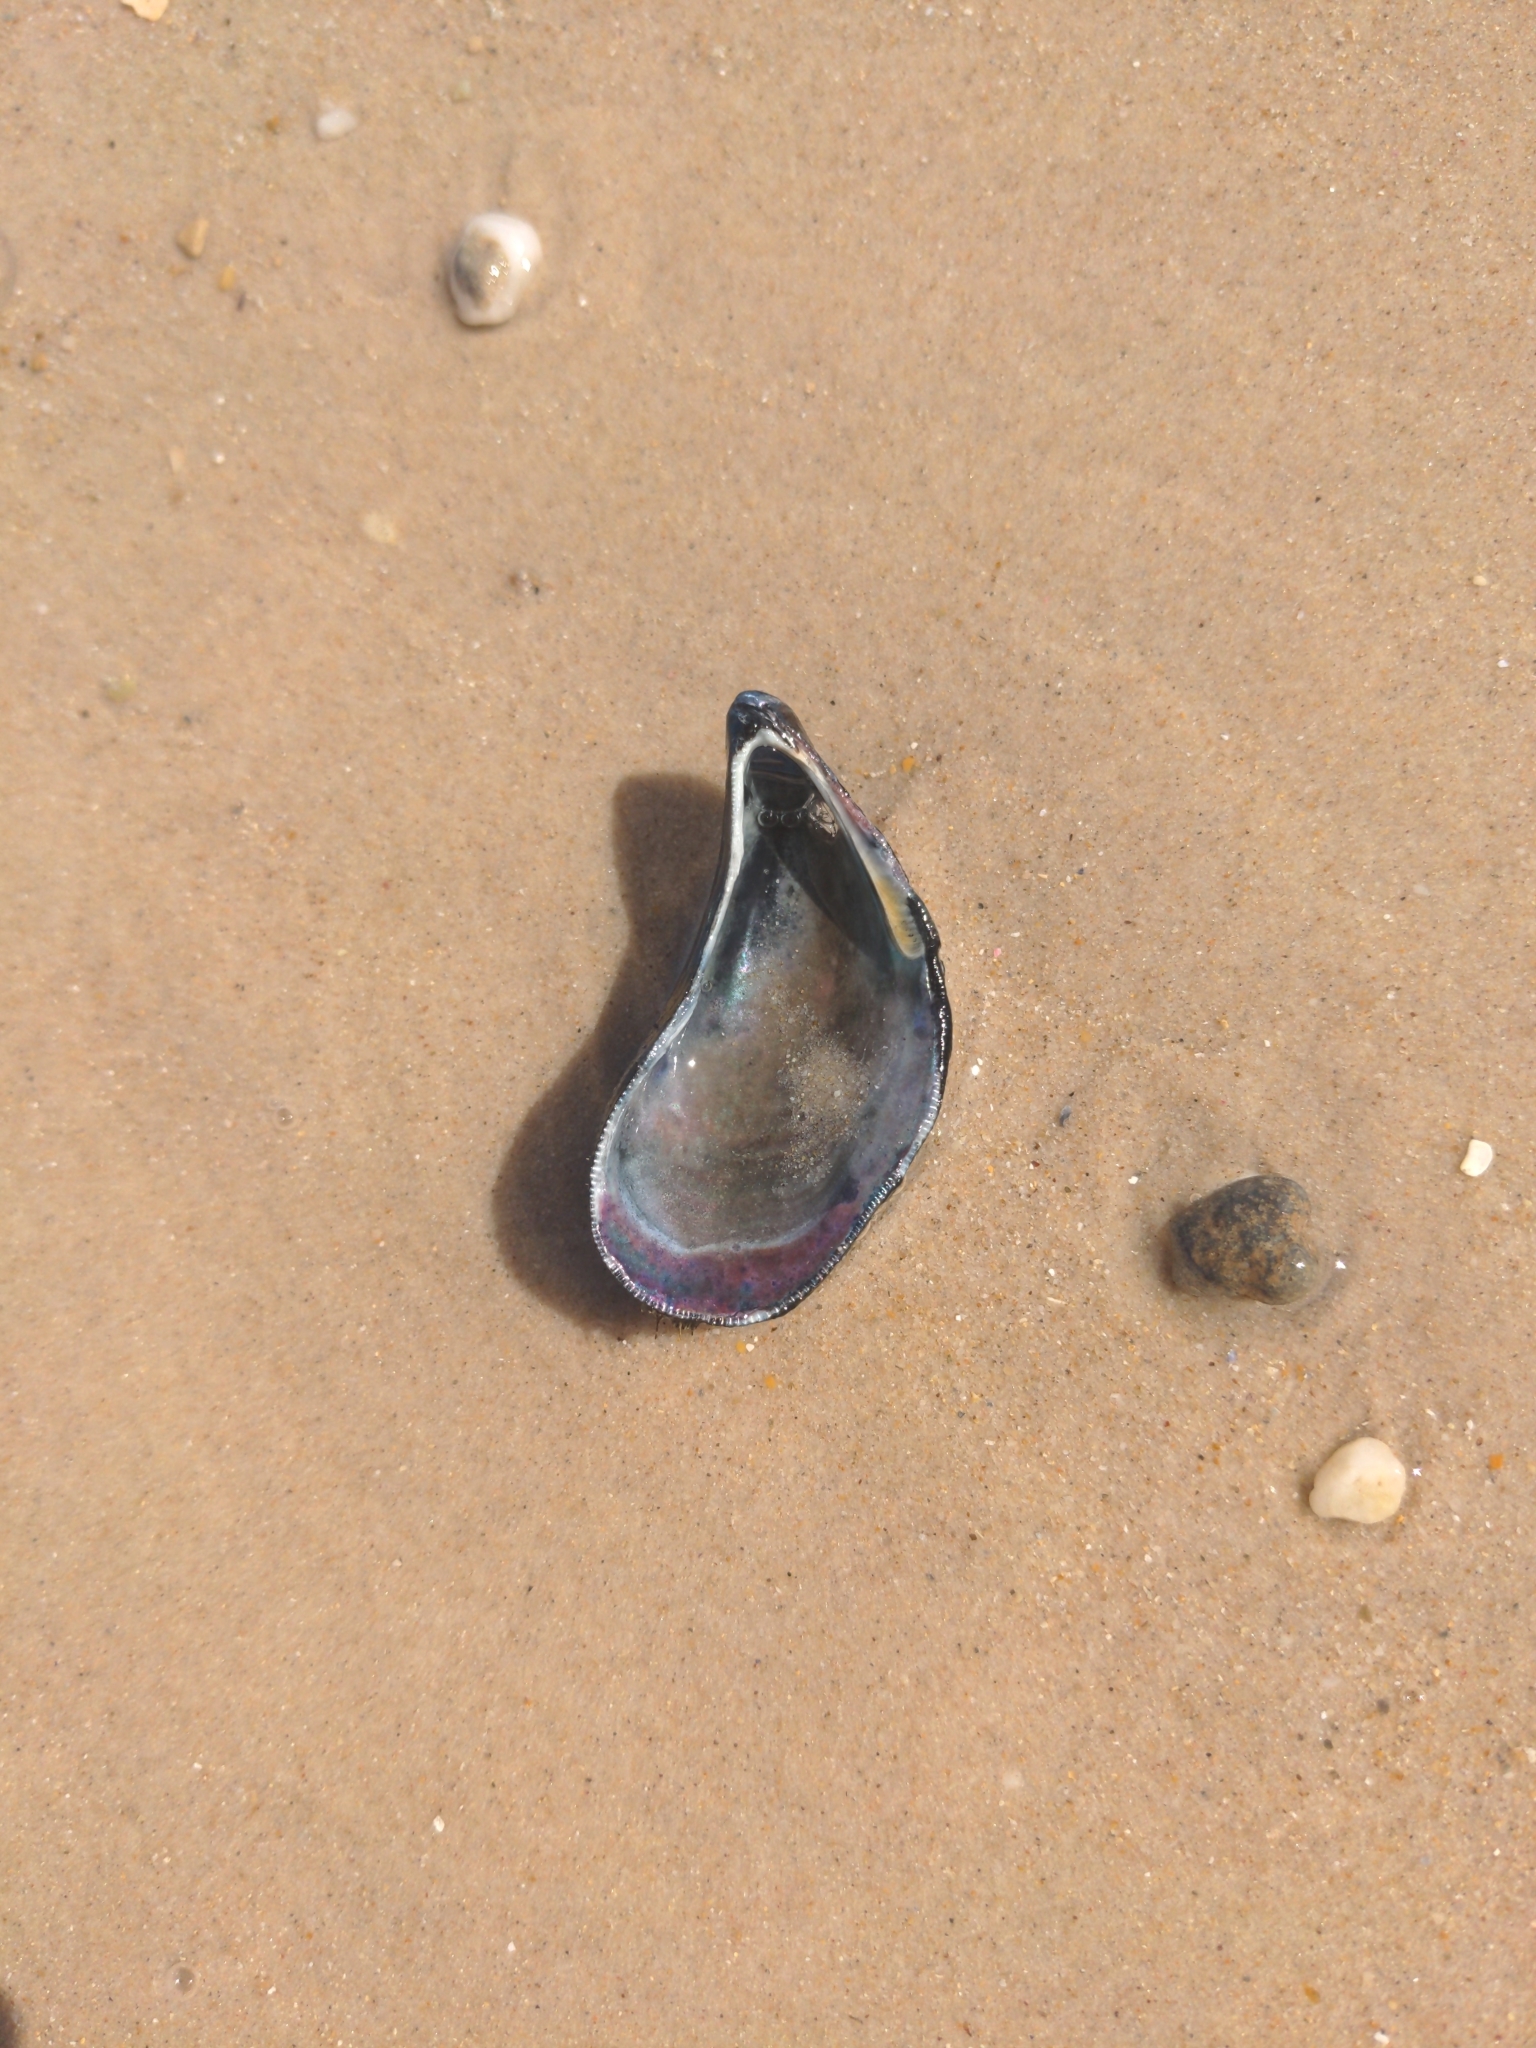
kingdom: Animalia
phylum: Mollusca
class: Bivalvia
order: Mytilida
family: Mytilidae
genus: Brachidontes
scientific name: Brachidontes erosus
